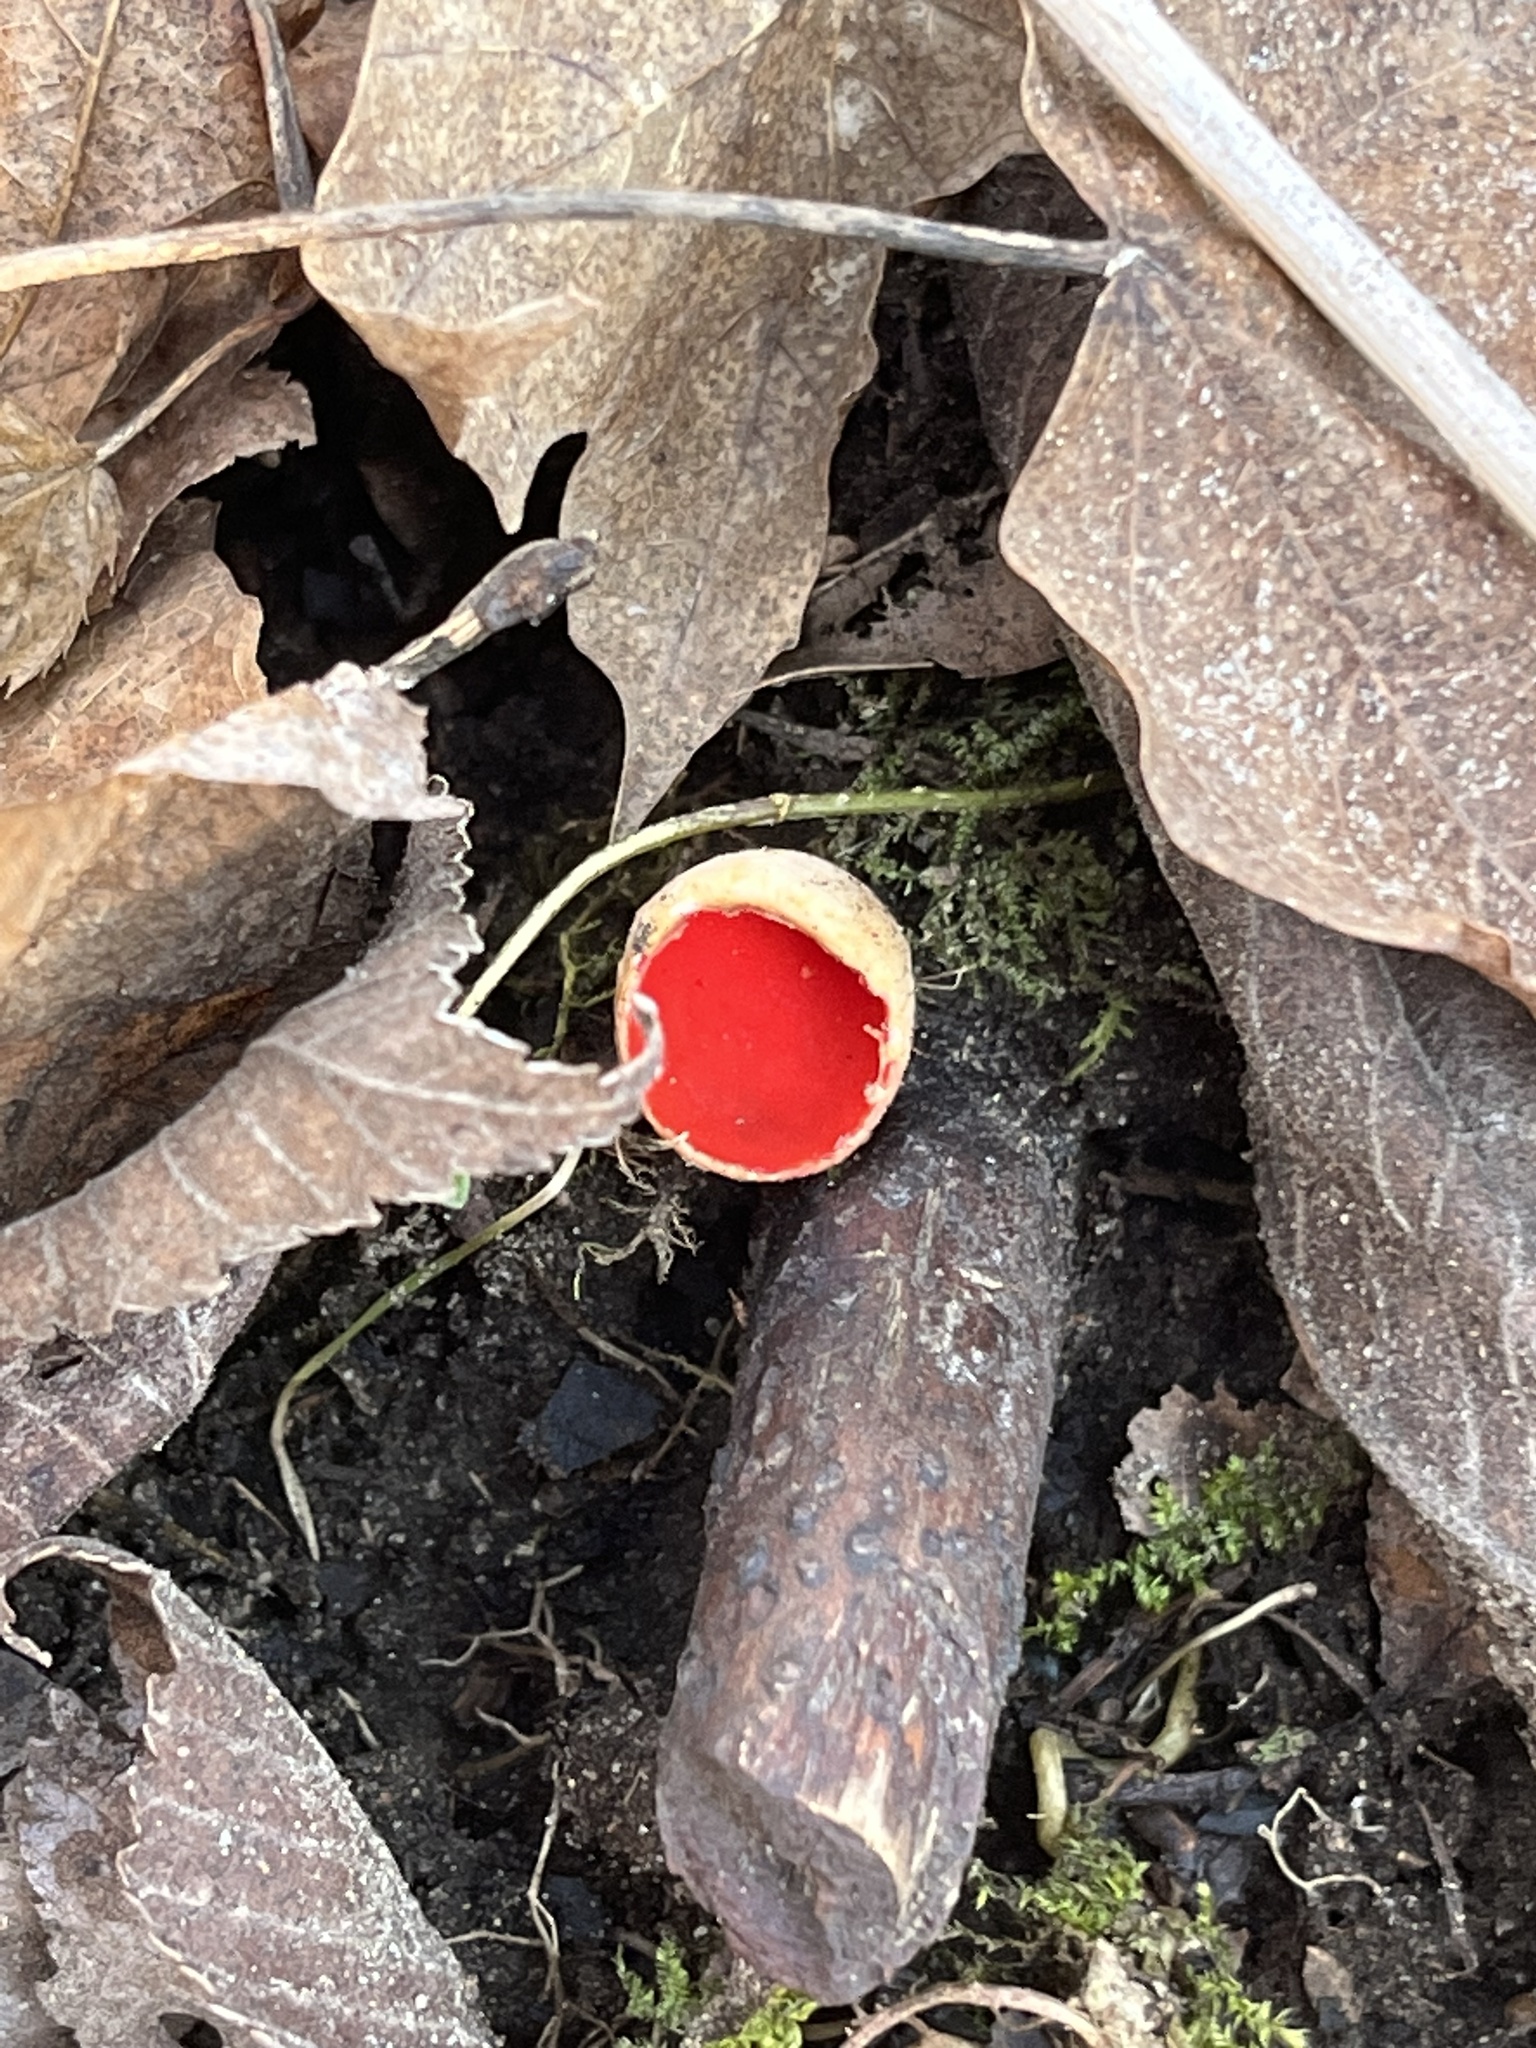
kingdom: Fungi
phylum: Ascomycota
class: Pezizomycetes
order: Pezizales
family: Sarcoscyphaceae
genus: Sarcoscypha
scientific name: Sarcoscypha austriaca
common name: Scarlet elfcup
